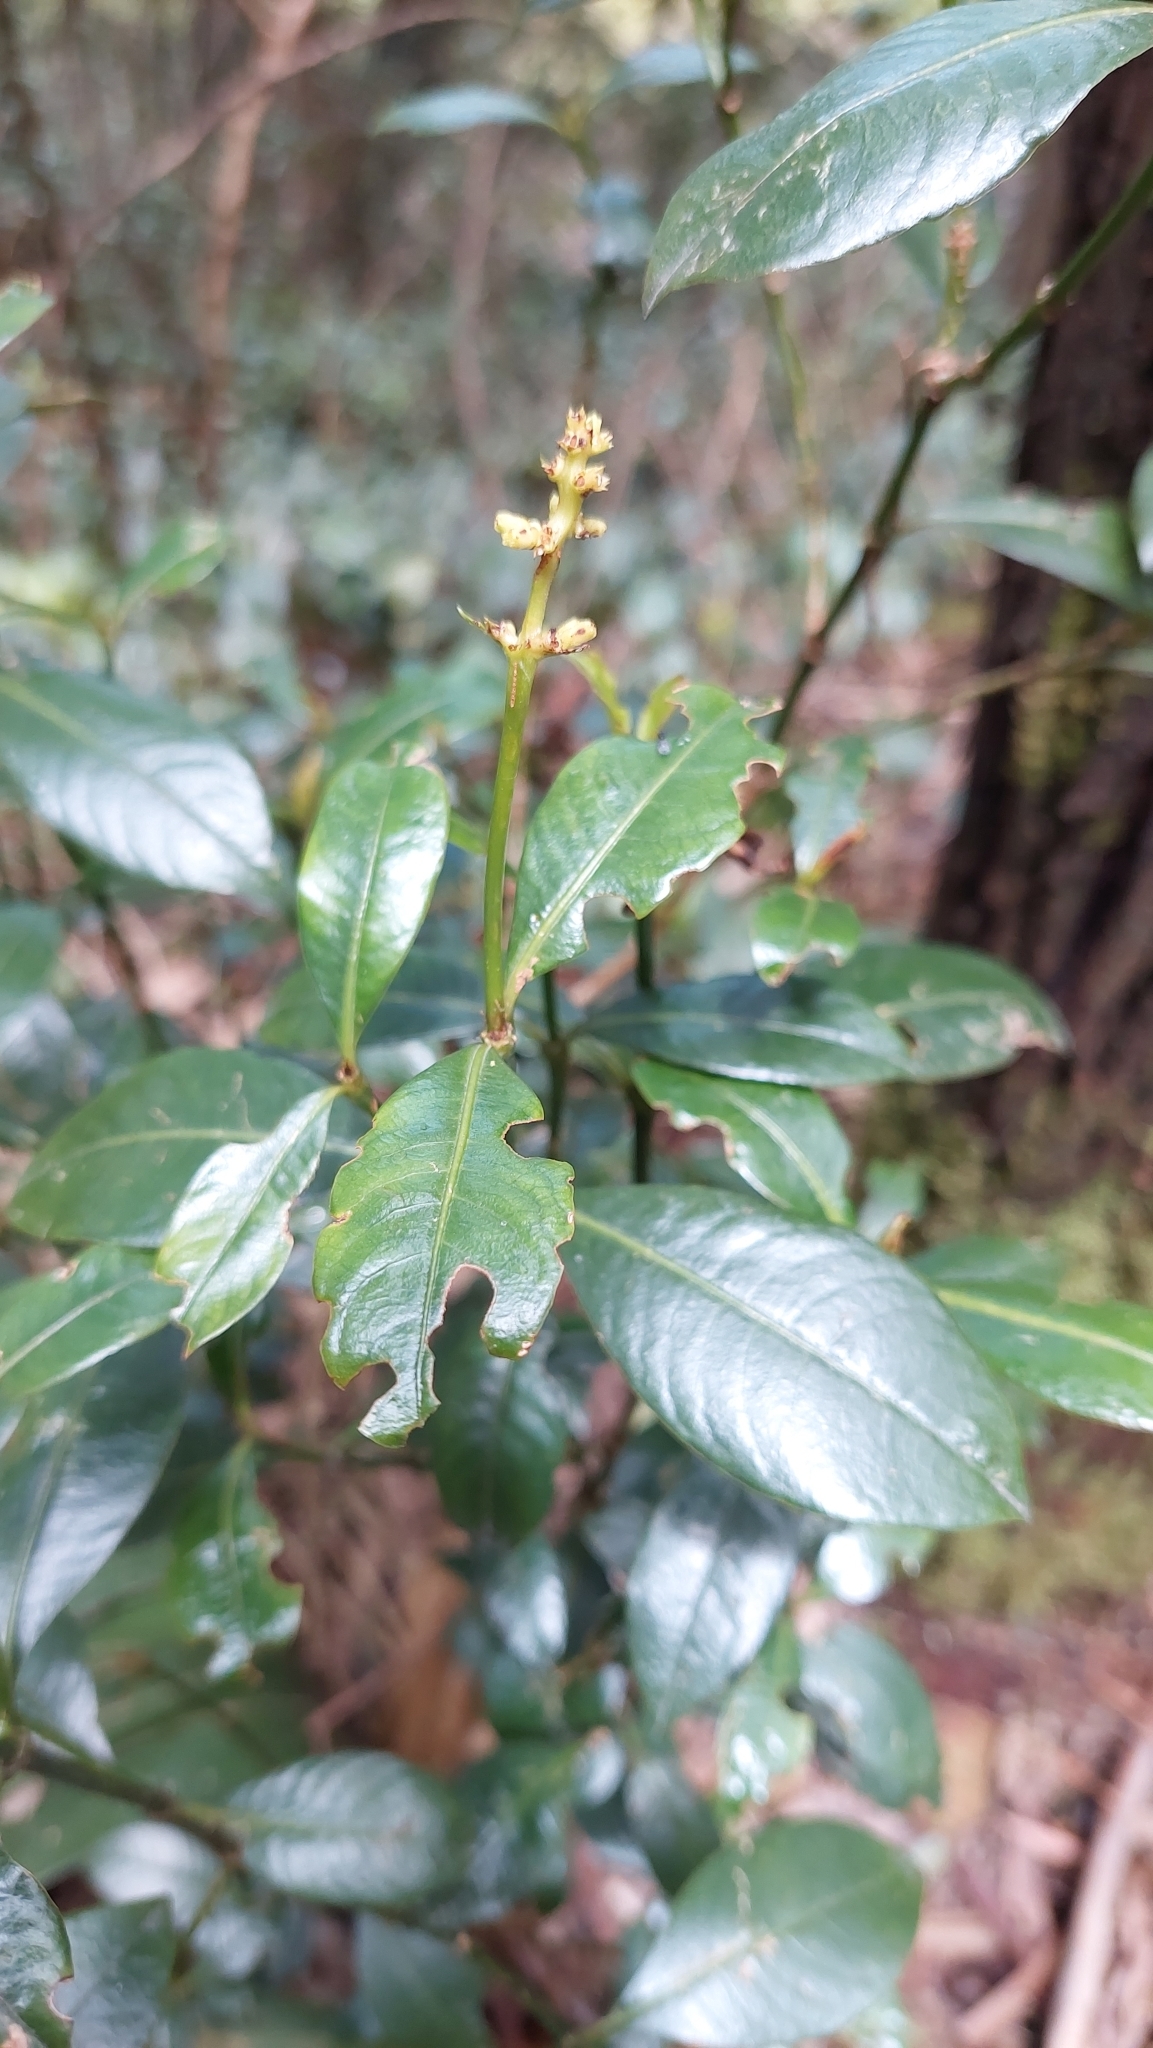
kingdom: Plantae
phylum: Tracheophyta
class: Magnoliopsida
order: Gentianales
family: Rubiaceae
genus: Palicourea
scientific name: Palicourea boqueronensis
